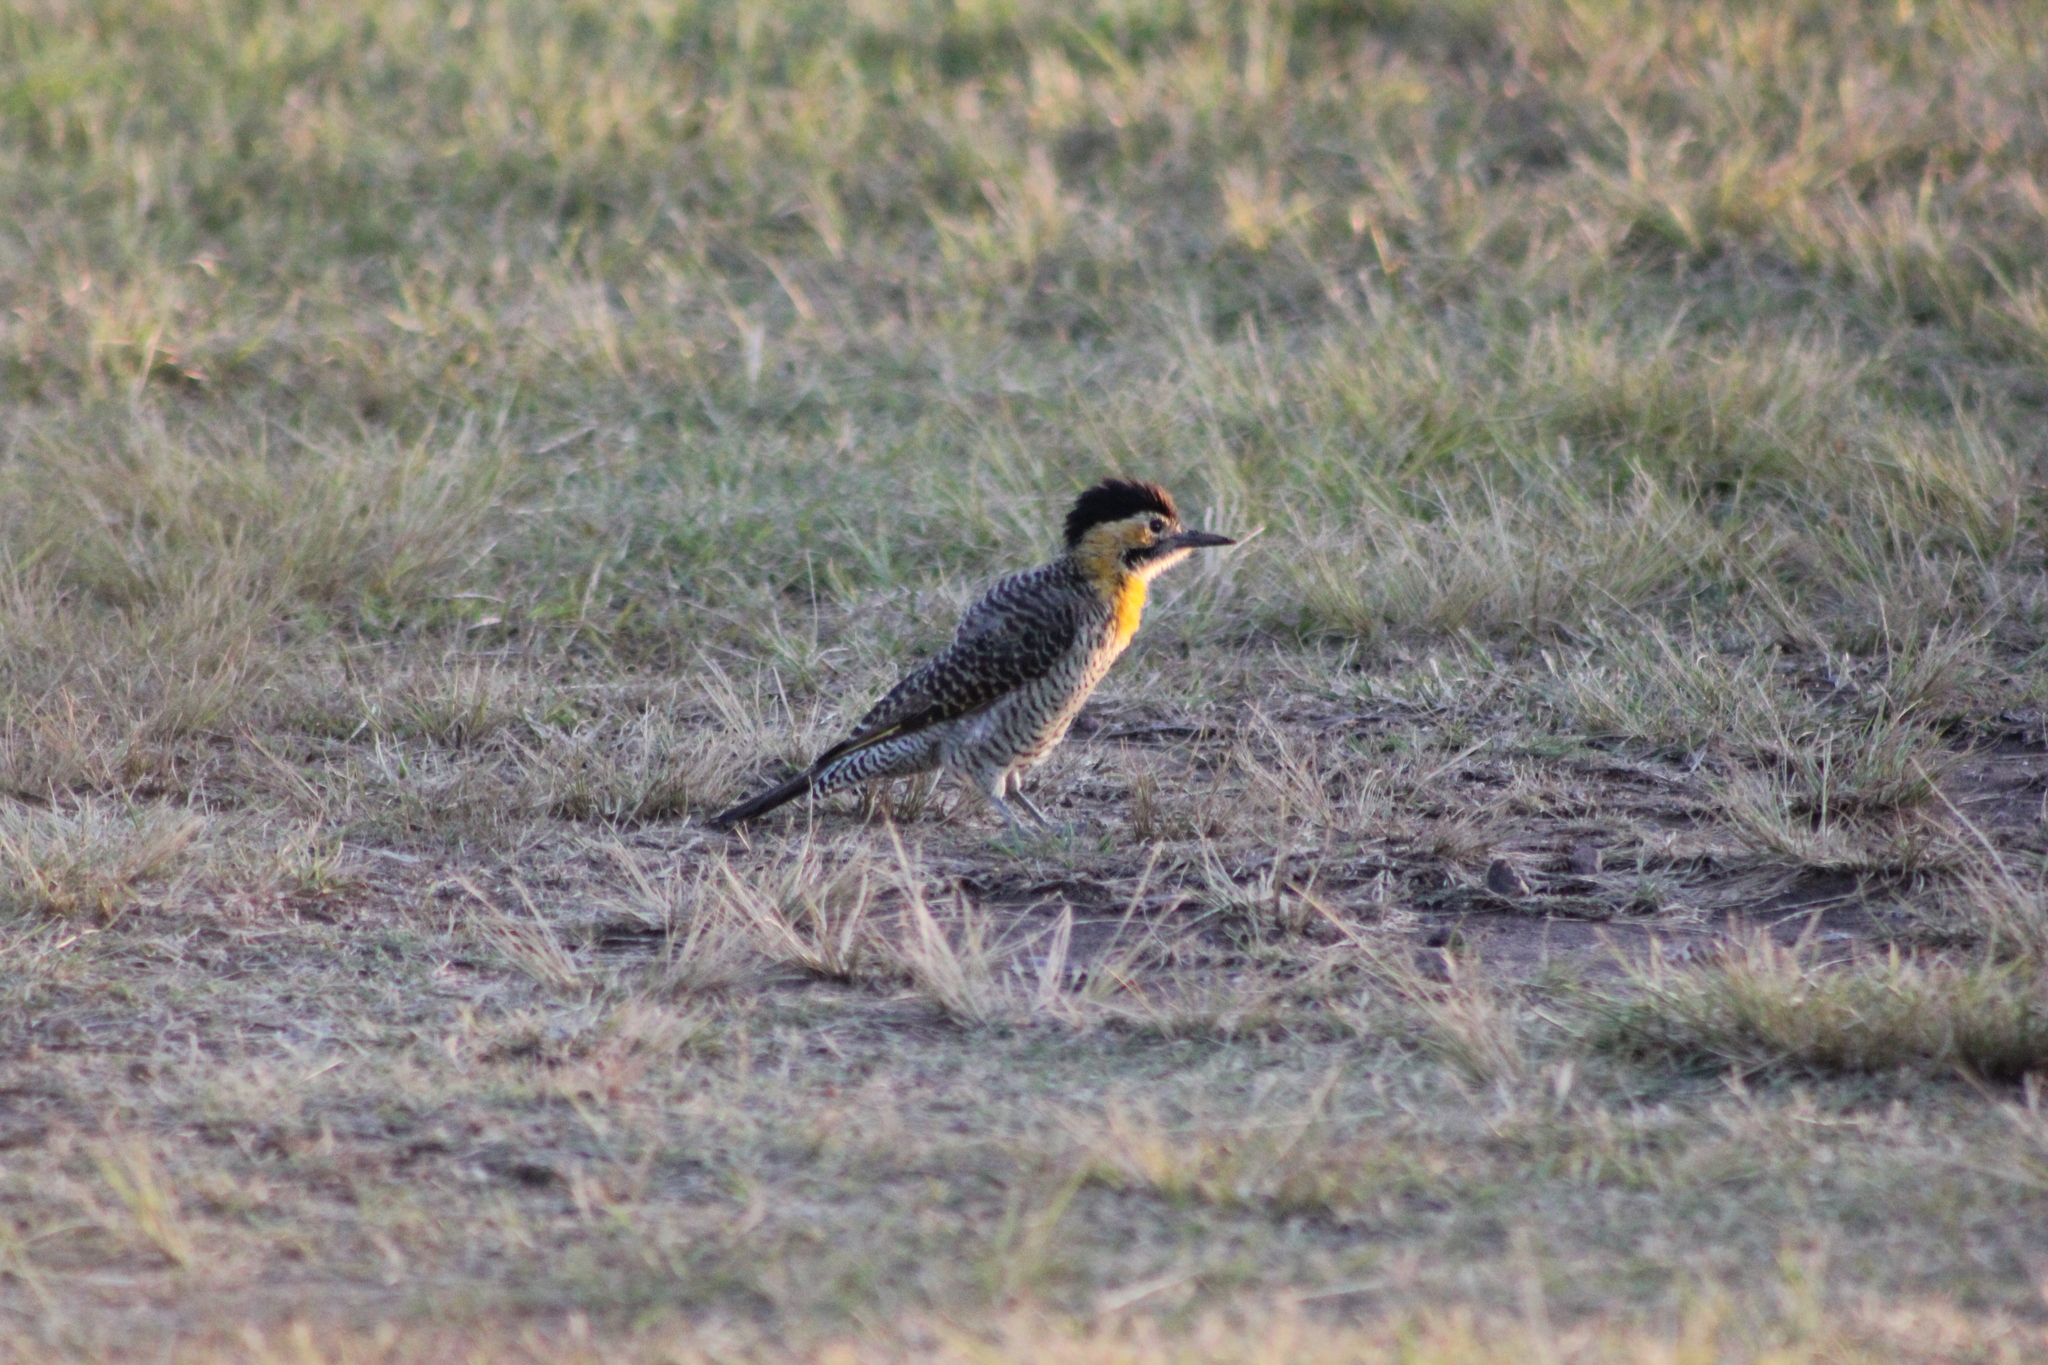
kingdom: Animalia
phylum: Chordata
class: Aves
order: Piciformes
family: Picidae
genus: Colaptes
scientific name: Colaptes campestris
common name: Campo flicker
